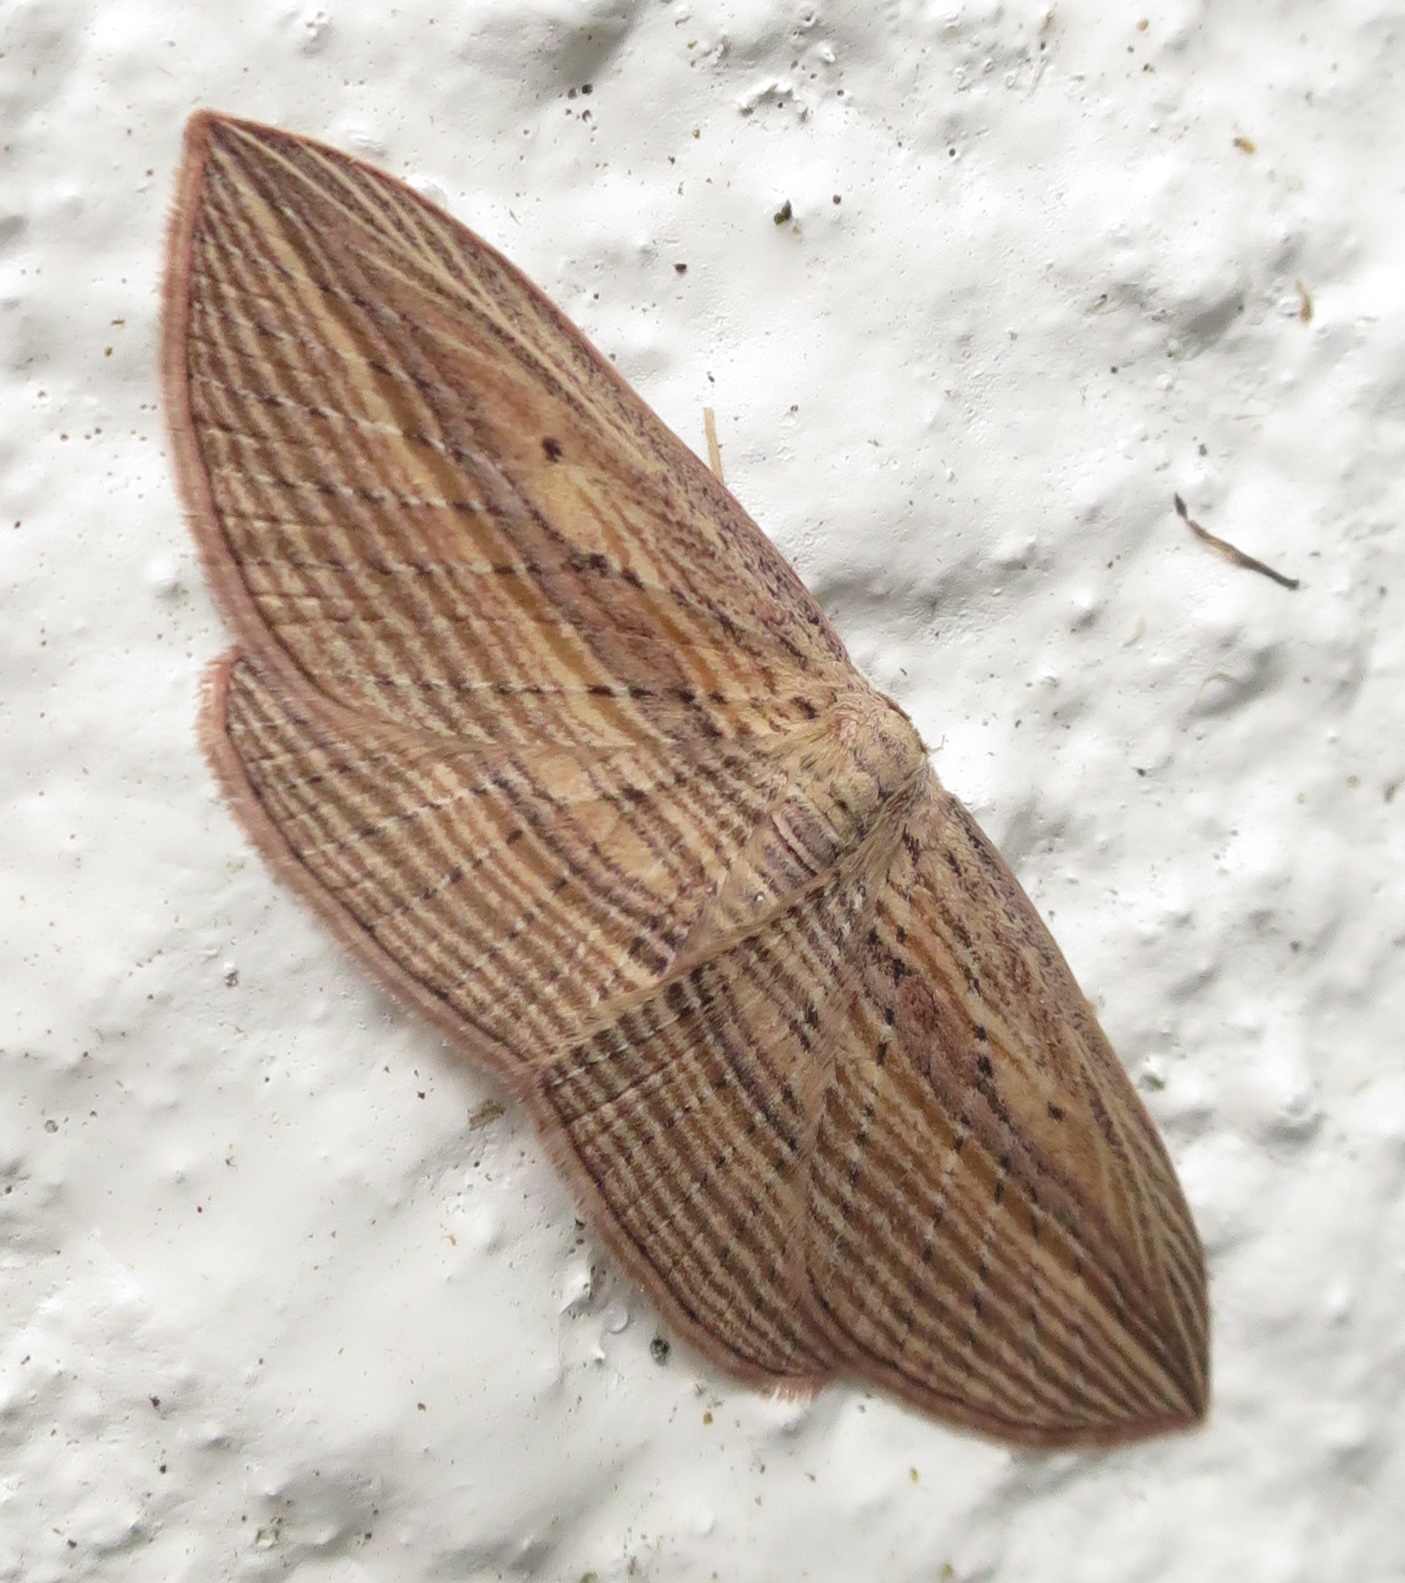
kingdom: Animalia
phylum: Arthropoda
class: Insecta
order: Lepidoptera
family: Geometridae
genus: Epiphryne
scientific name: Epiphryne verriculata
